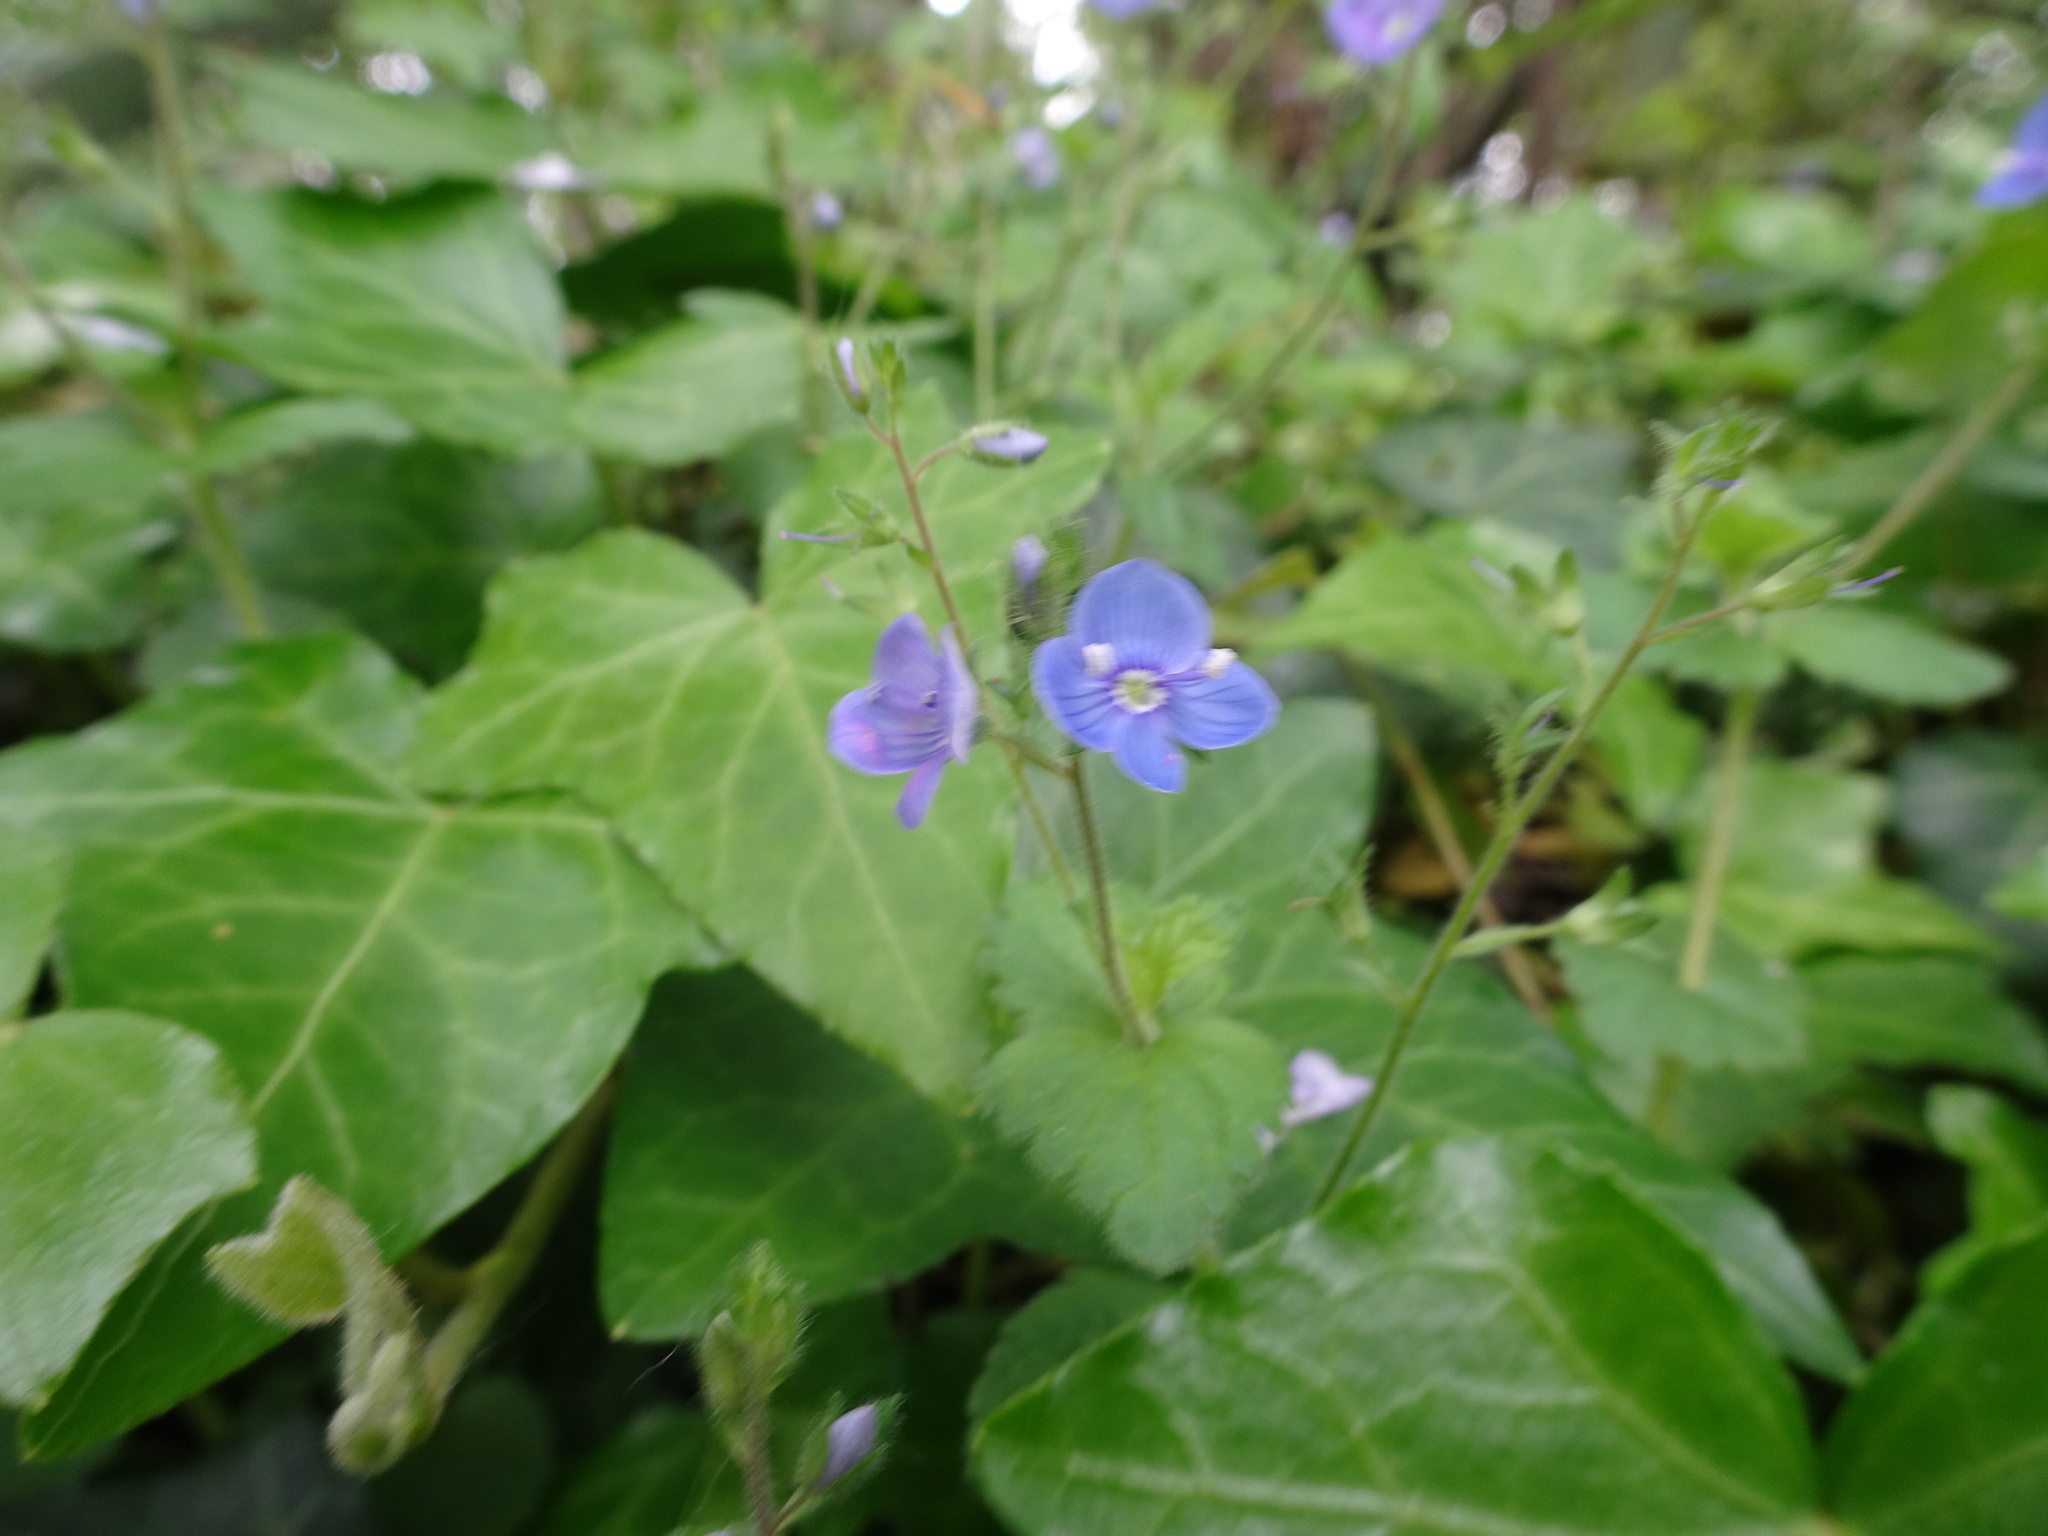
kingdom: Plantae
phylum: Tracheophyta
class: Magnoliopsida
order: Lamiales
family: Plantaginaceae
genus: Veronica
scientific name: Veronica chamaedrys
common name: Germander speedwell
